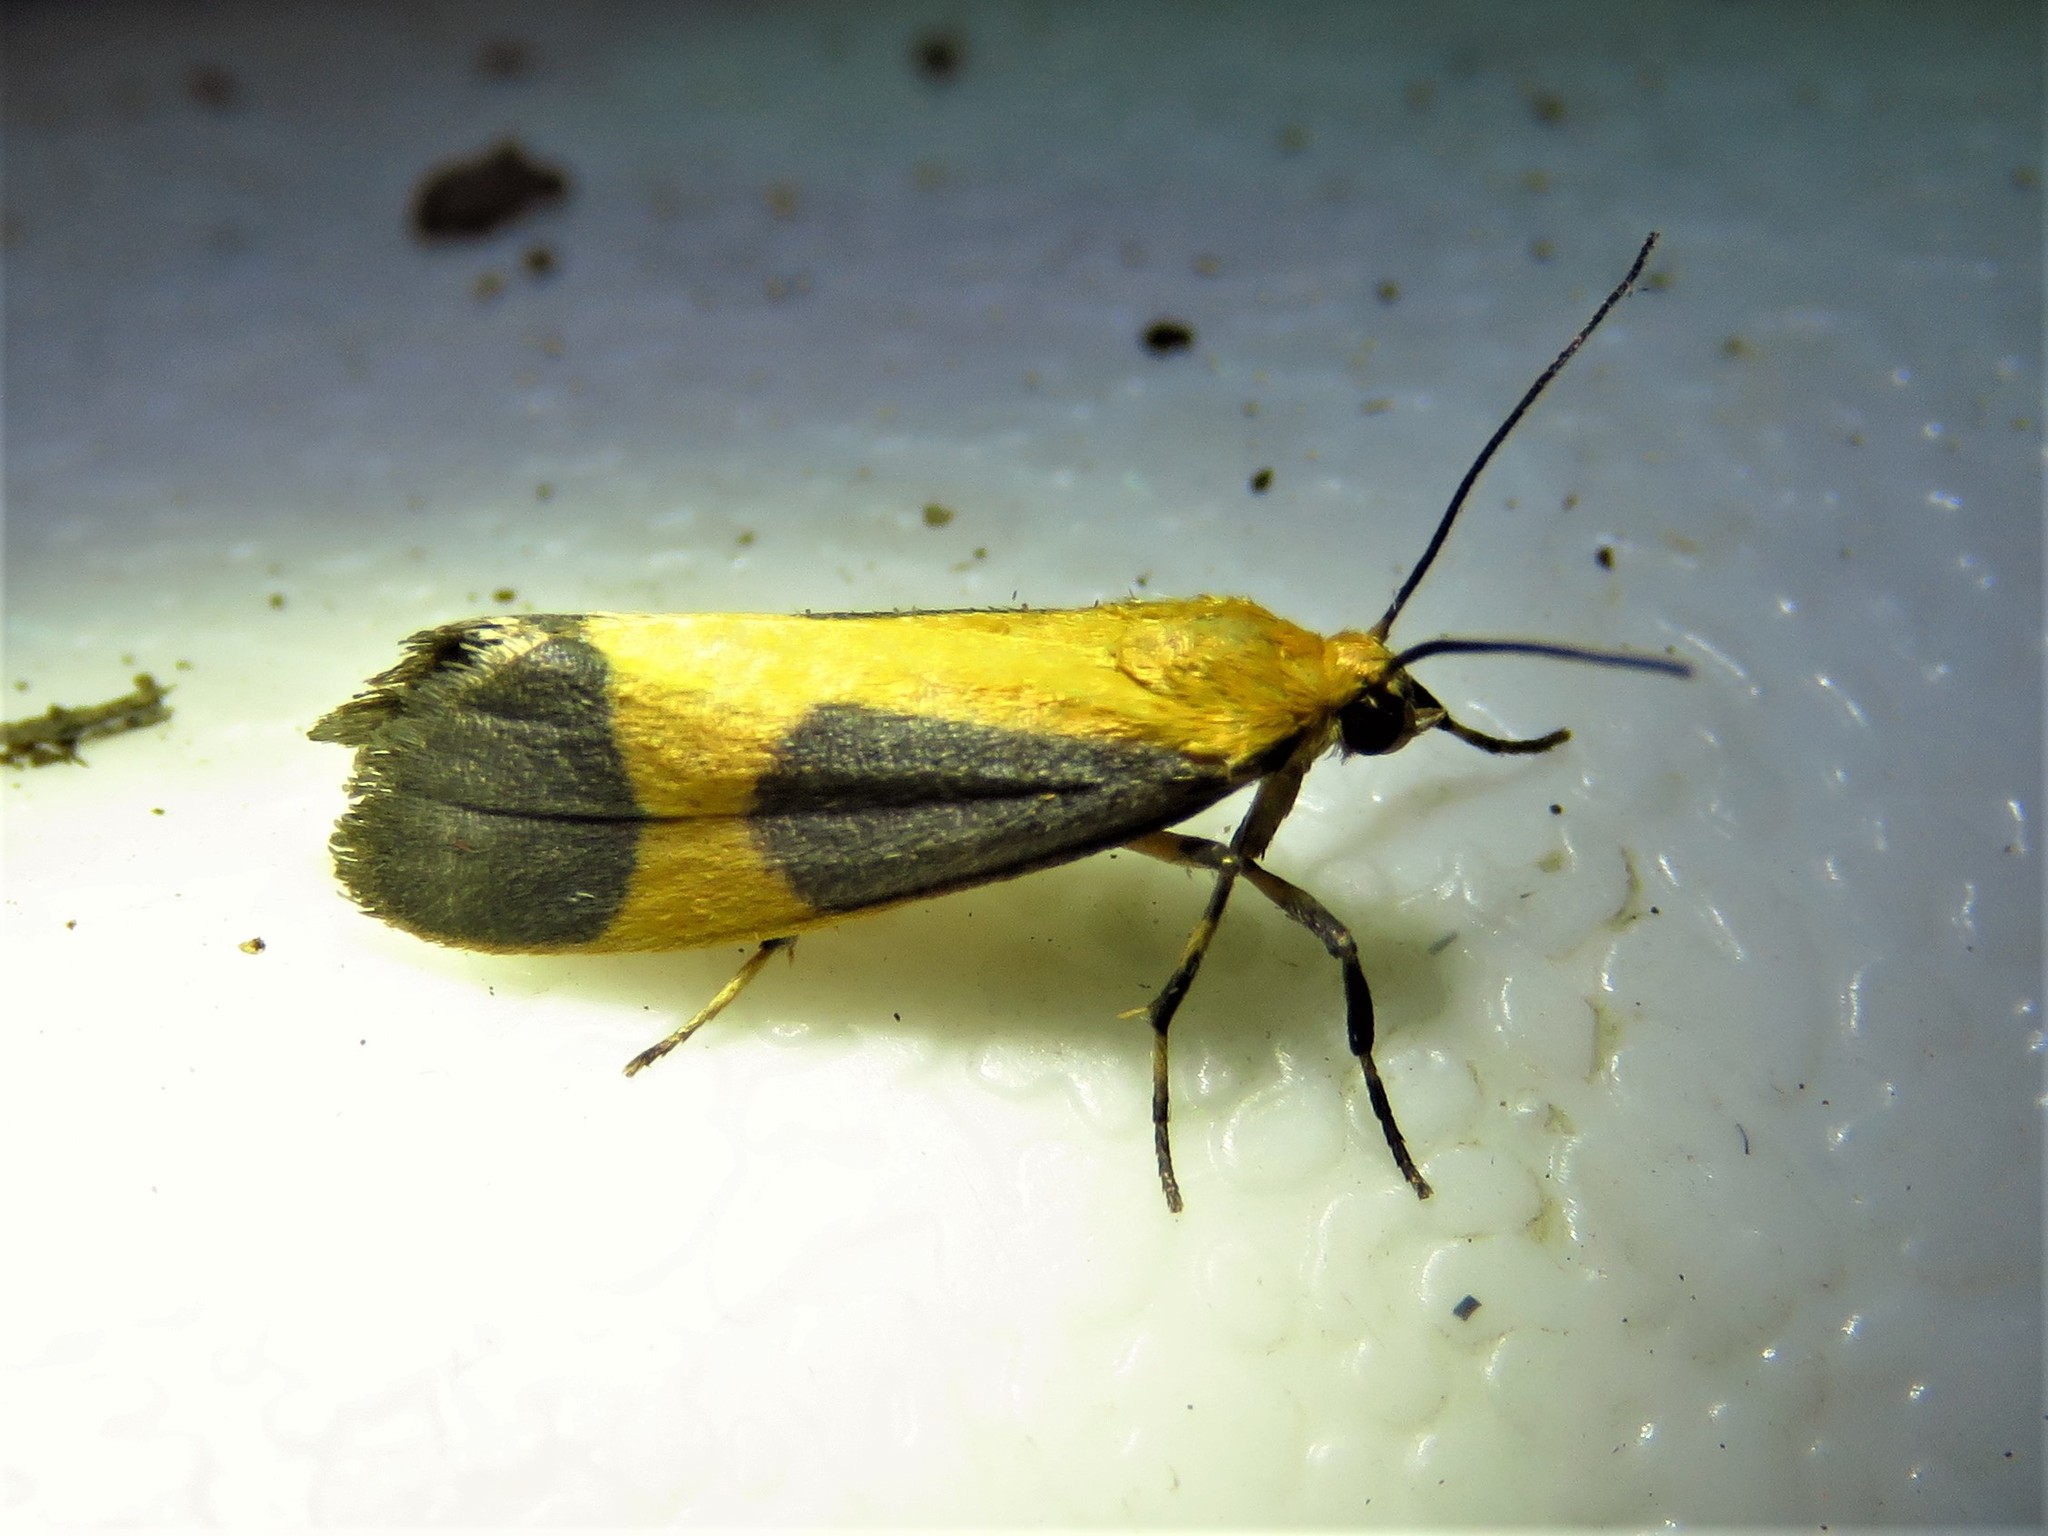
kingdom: Animalia
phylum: Arthropoda
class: Insecta
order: Lepidoptera
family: Erebidae
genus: Cisthene
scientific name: Cisthene picta
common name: Pictured lichen moth
